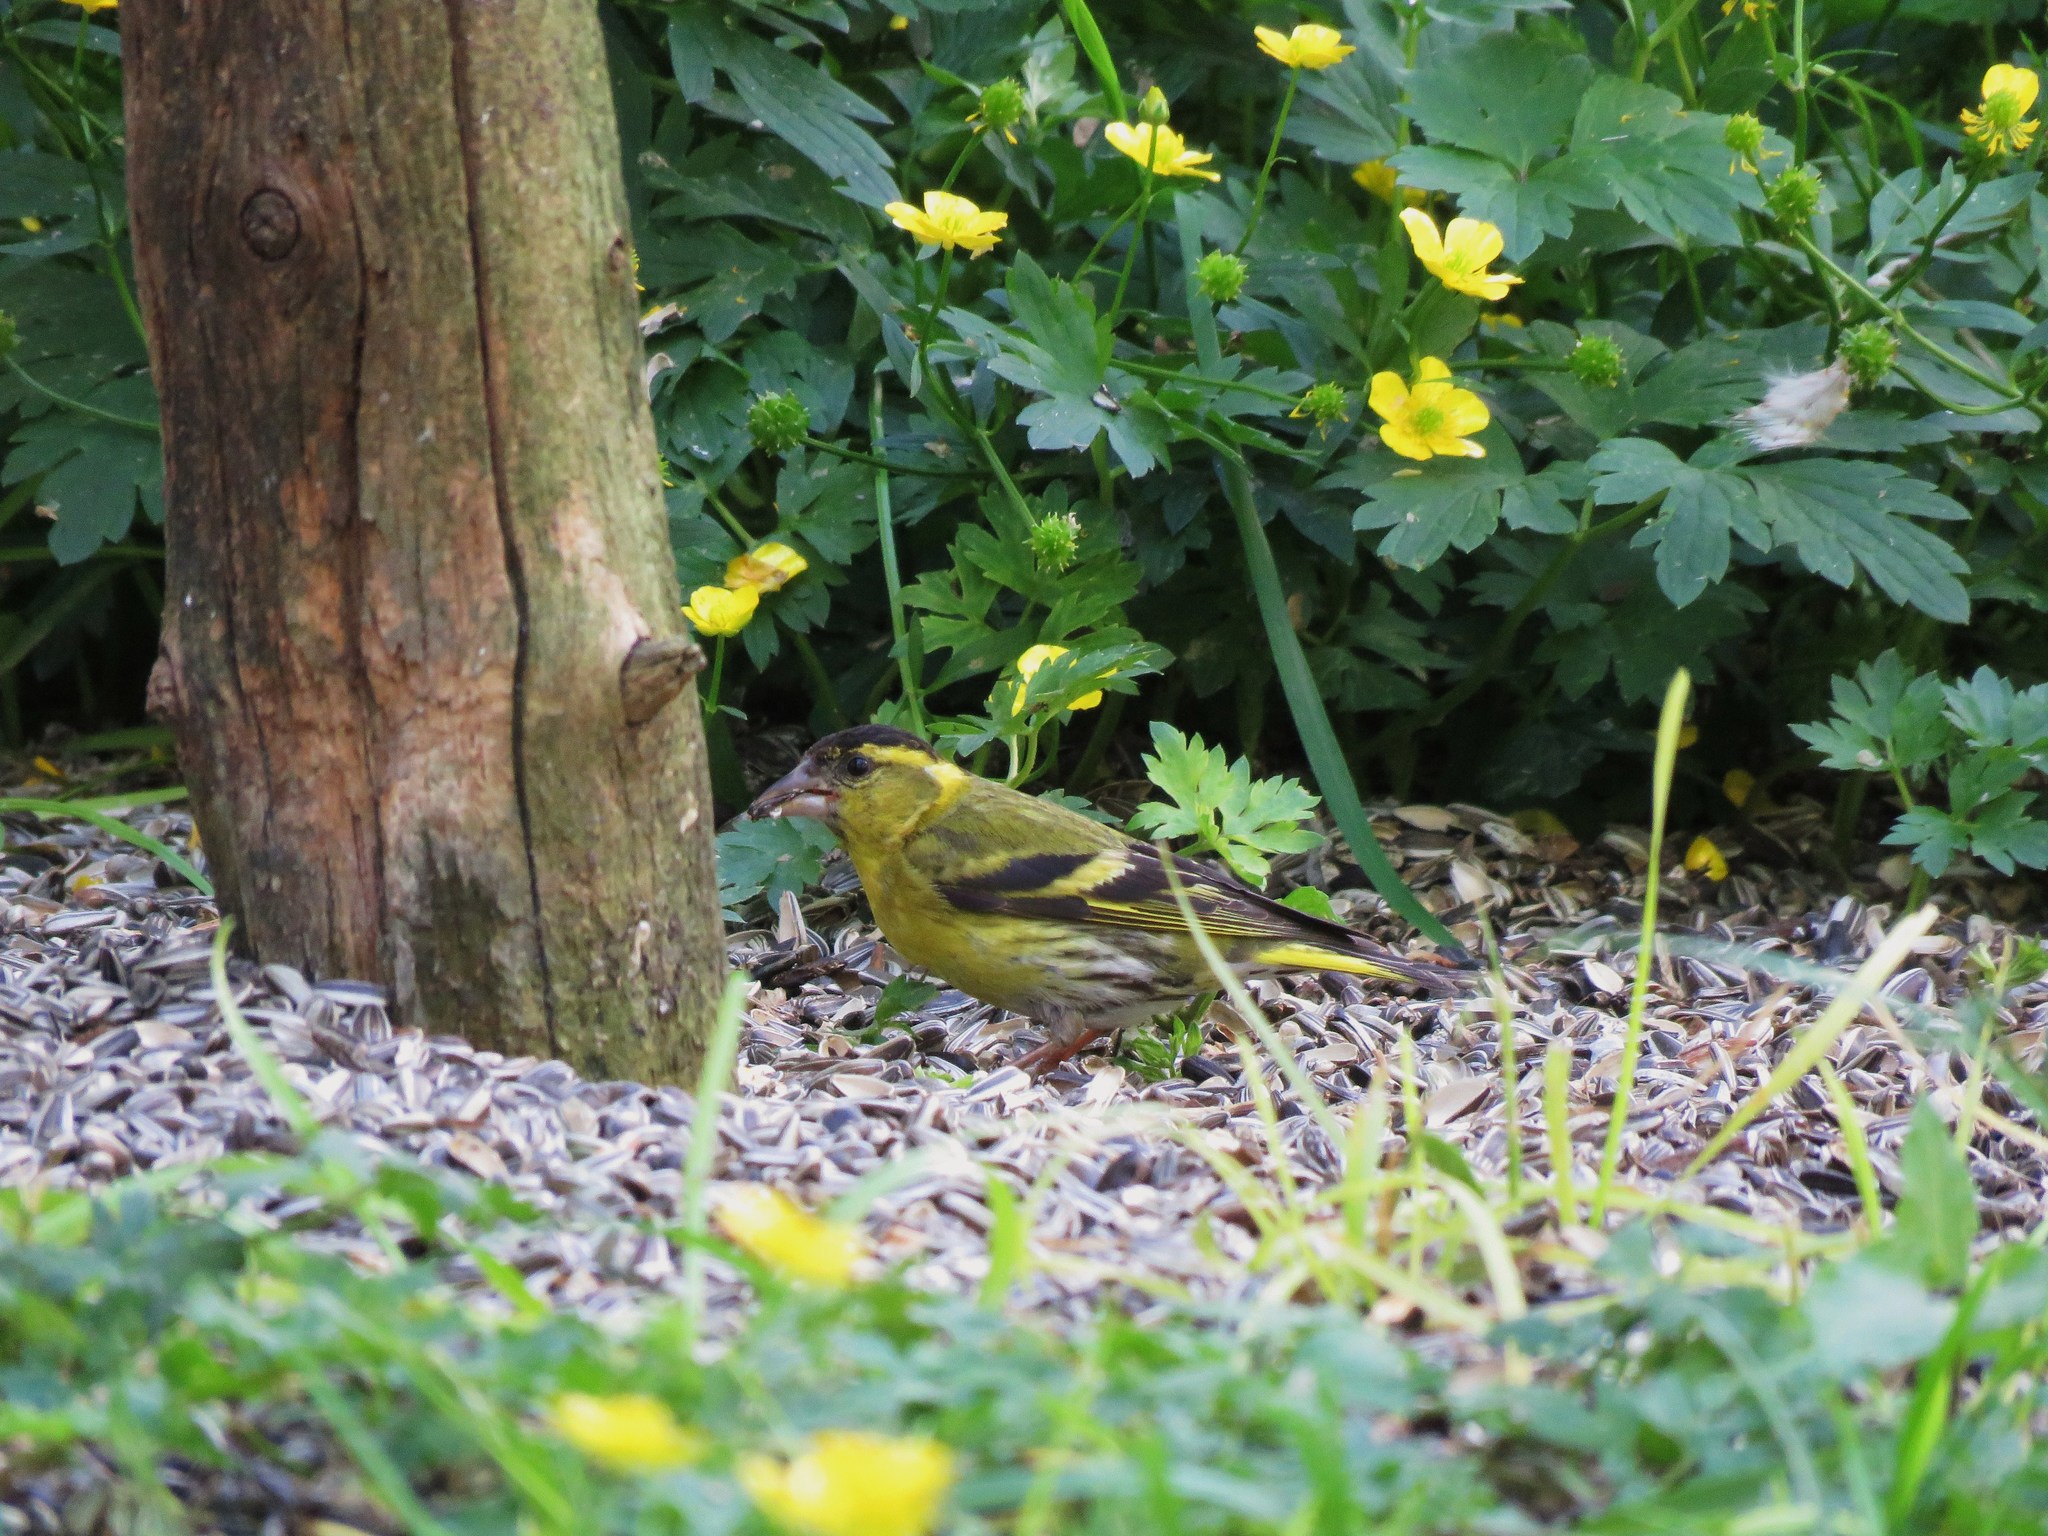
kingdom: Animalia
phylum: Chordata
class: Aves
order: Passeriformes
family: Fringillidae
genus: Spinus
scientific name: Spinus spinus
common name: Eurasian siskin
